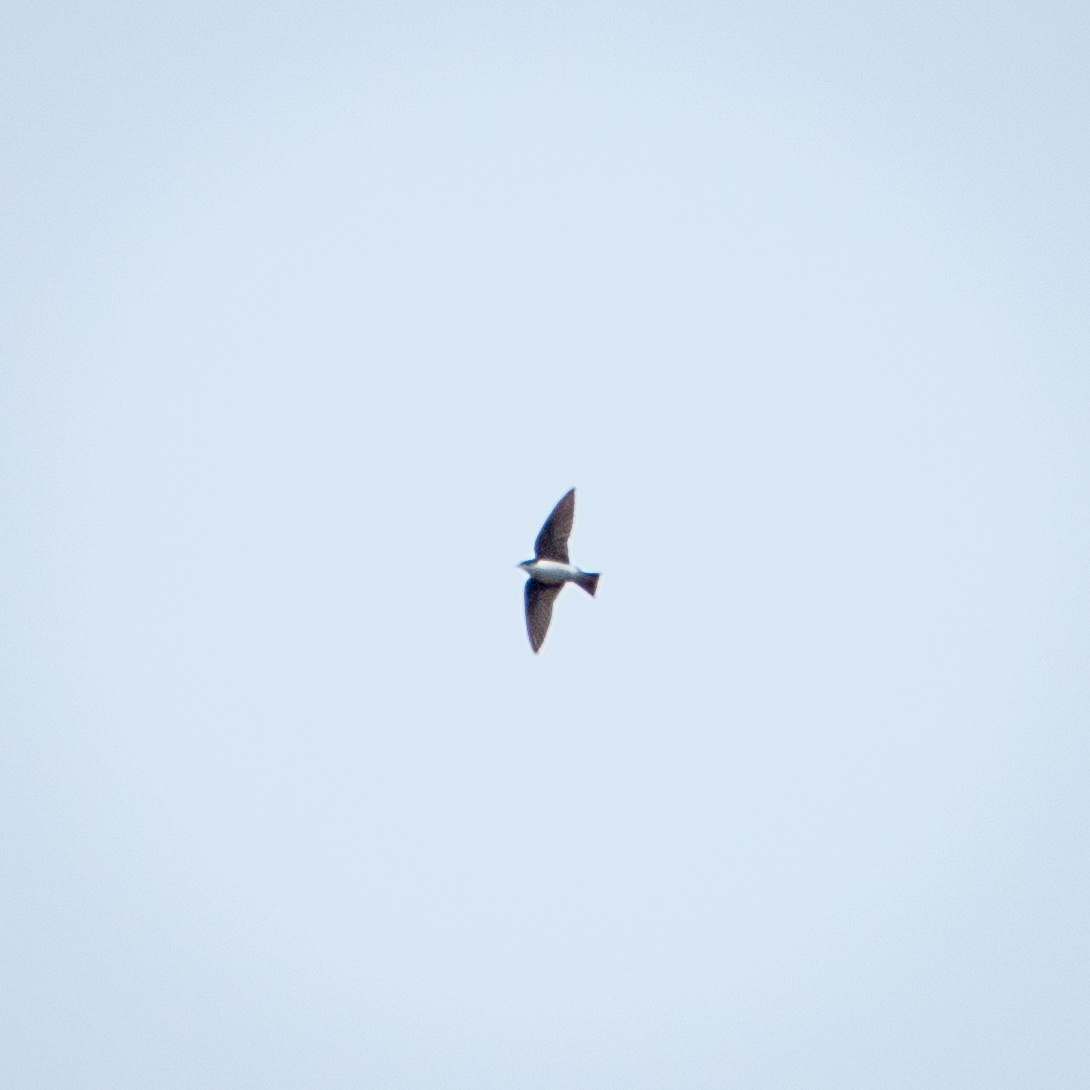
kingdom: Animalia
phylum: Chordata
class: Aves
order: Passeriformes
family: Hirundinidae
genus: Tachycineta
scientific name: Tachycineta bicolor
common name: Tree swallow
